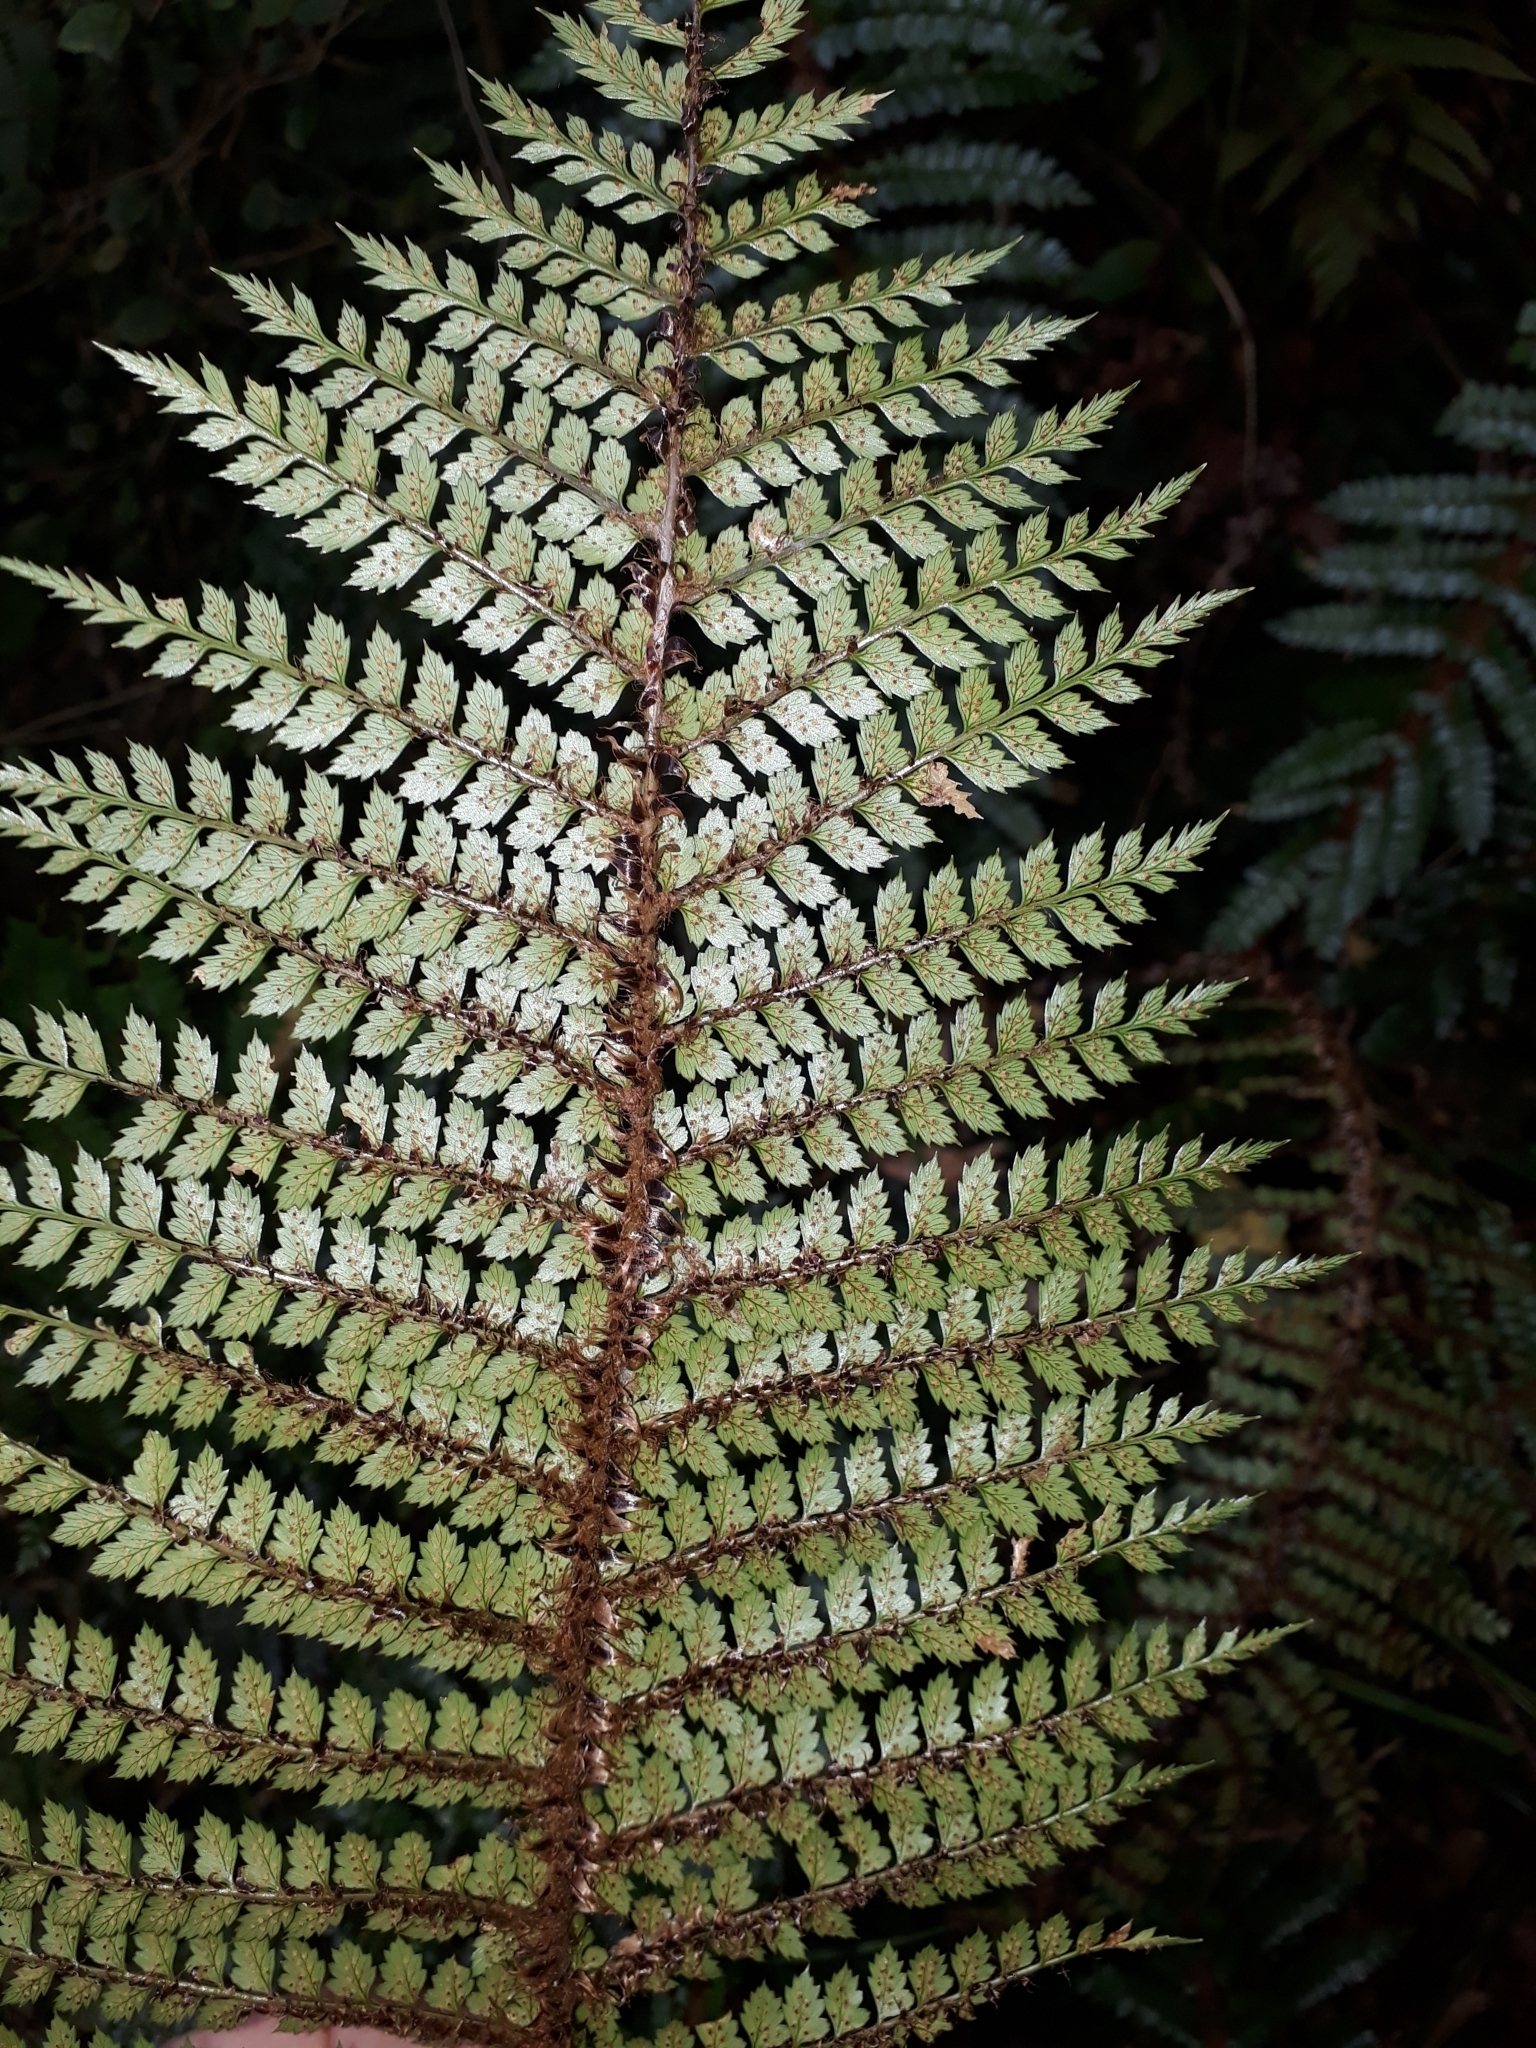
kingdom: Plantae
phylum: Tracheophyta
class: Polypodiopsida
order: Polypodiales
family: Dryopteridaceae
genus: Polystichum
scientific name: Polystichum vestitum
